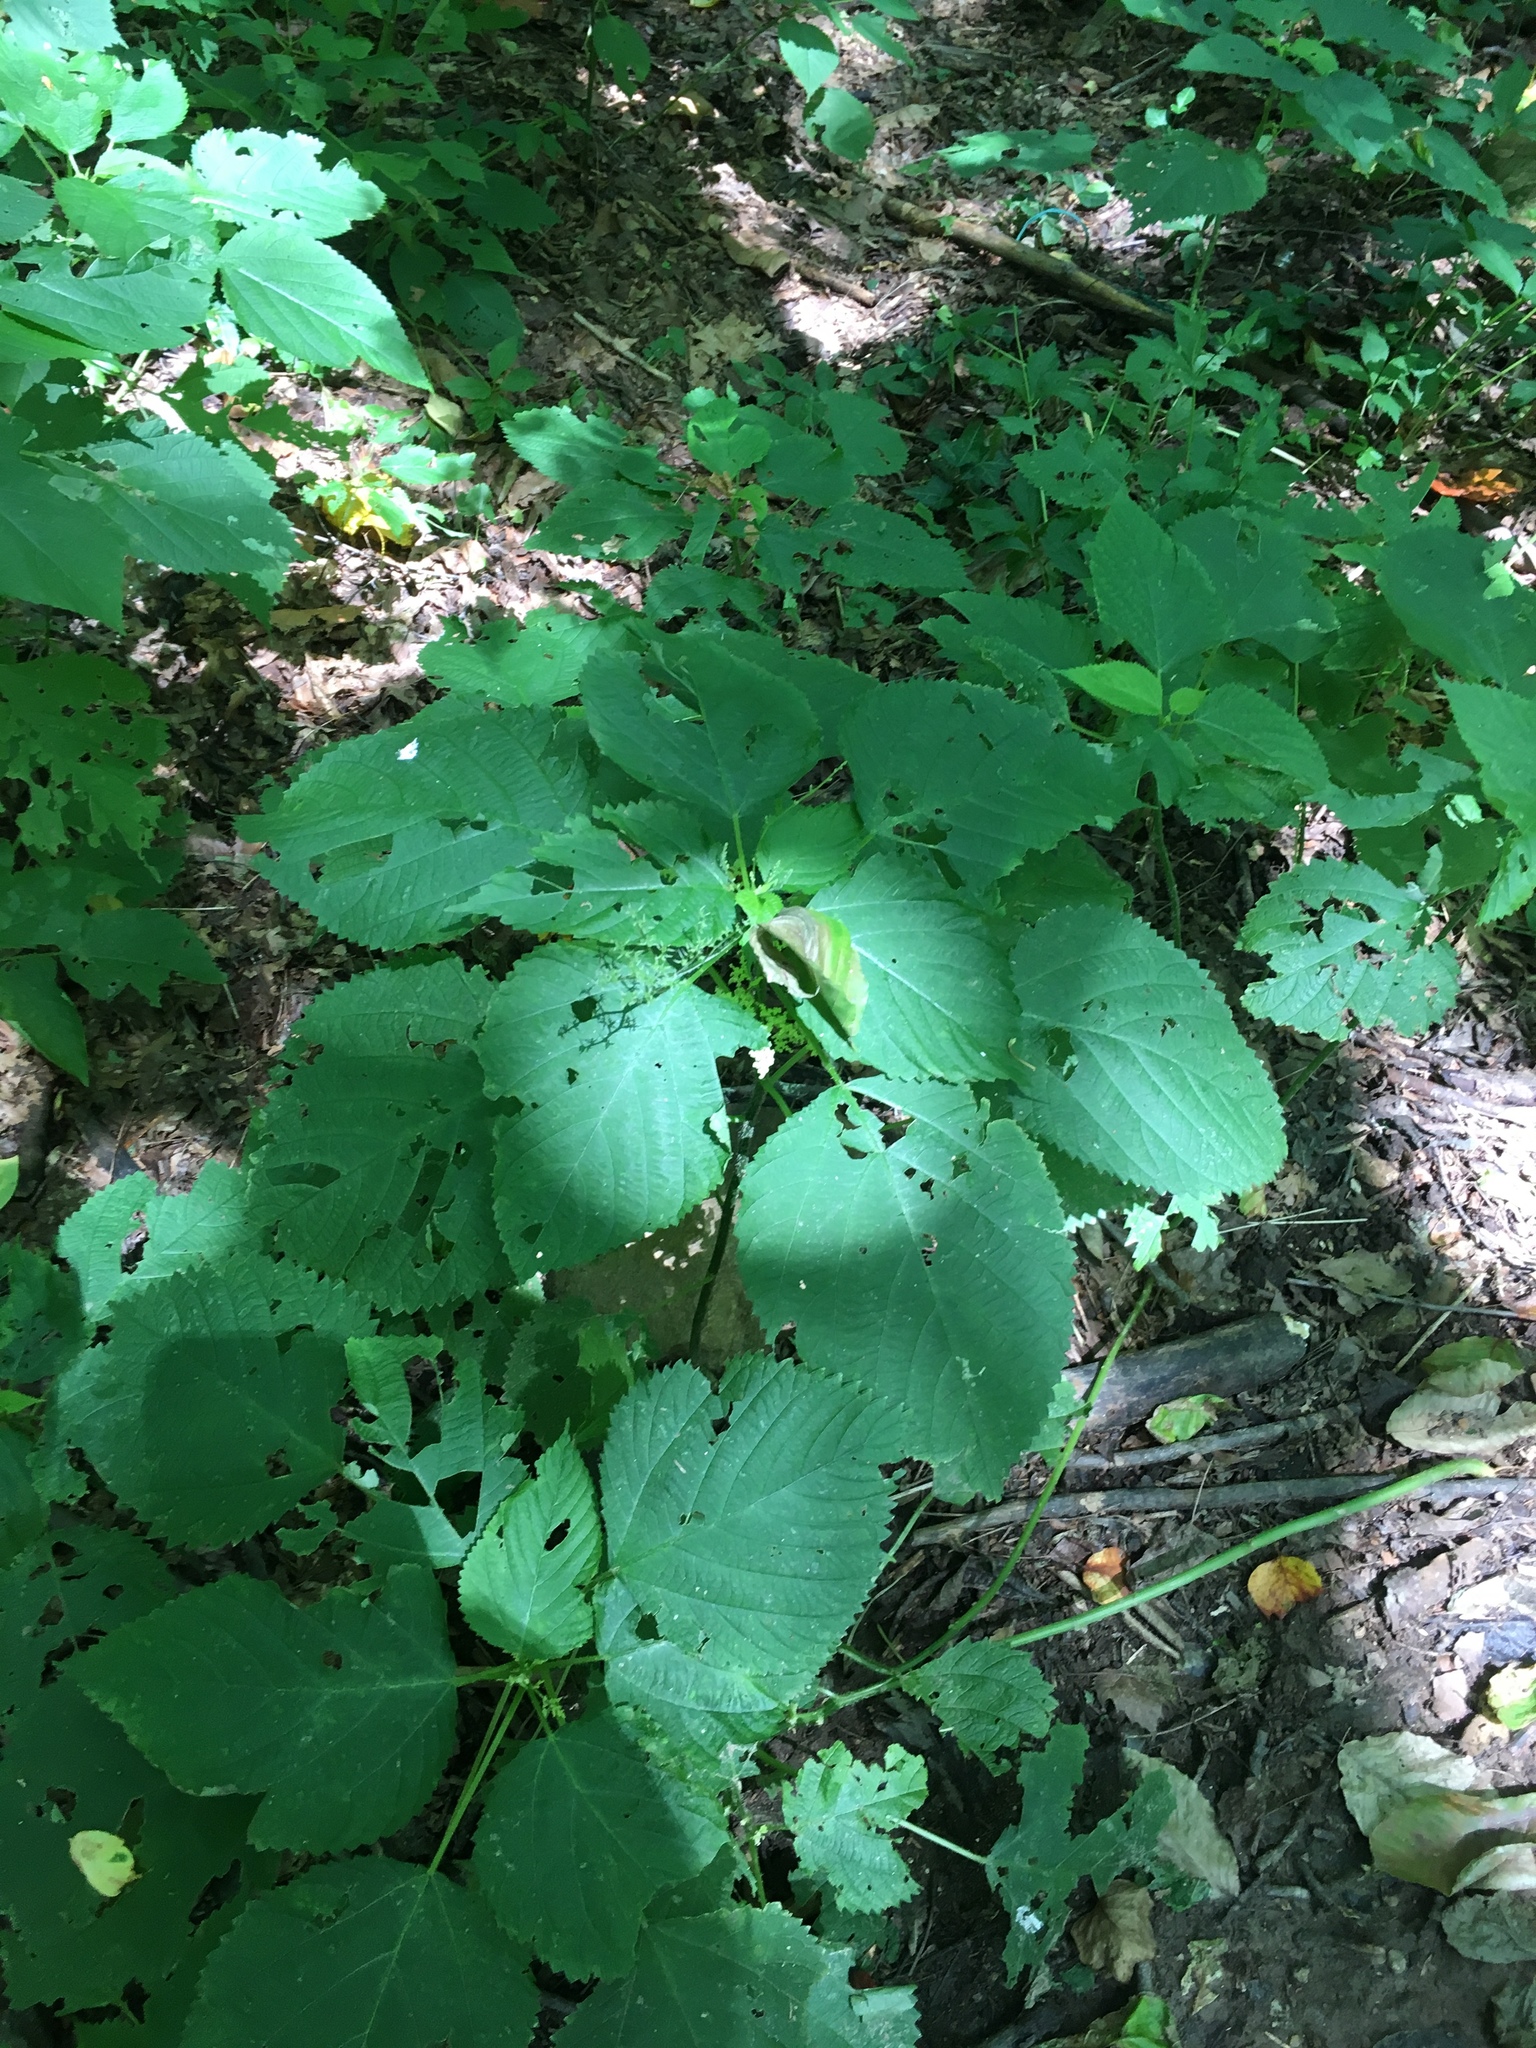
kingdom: Plantae
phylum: Tracheophyta
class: Magnoliopsida
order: Rosales
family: Urticaceae
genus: Laportea
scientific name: Laportea canadensis
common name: Canada nettle
